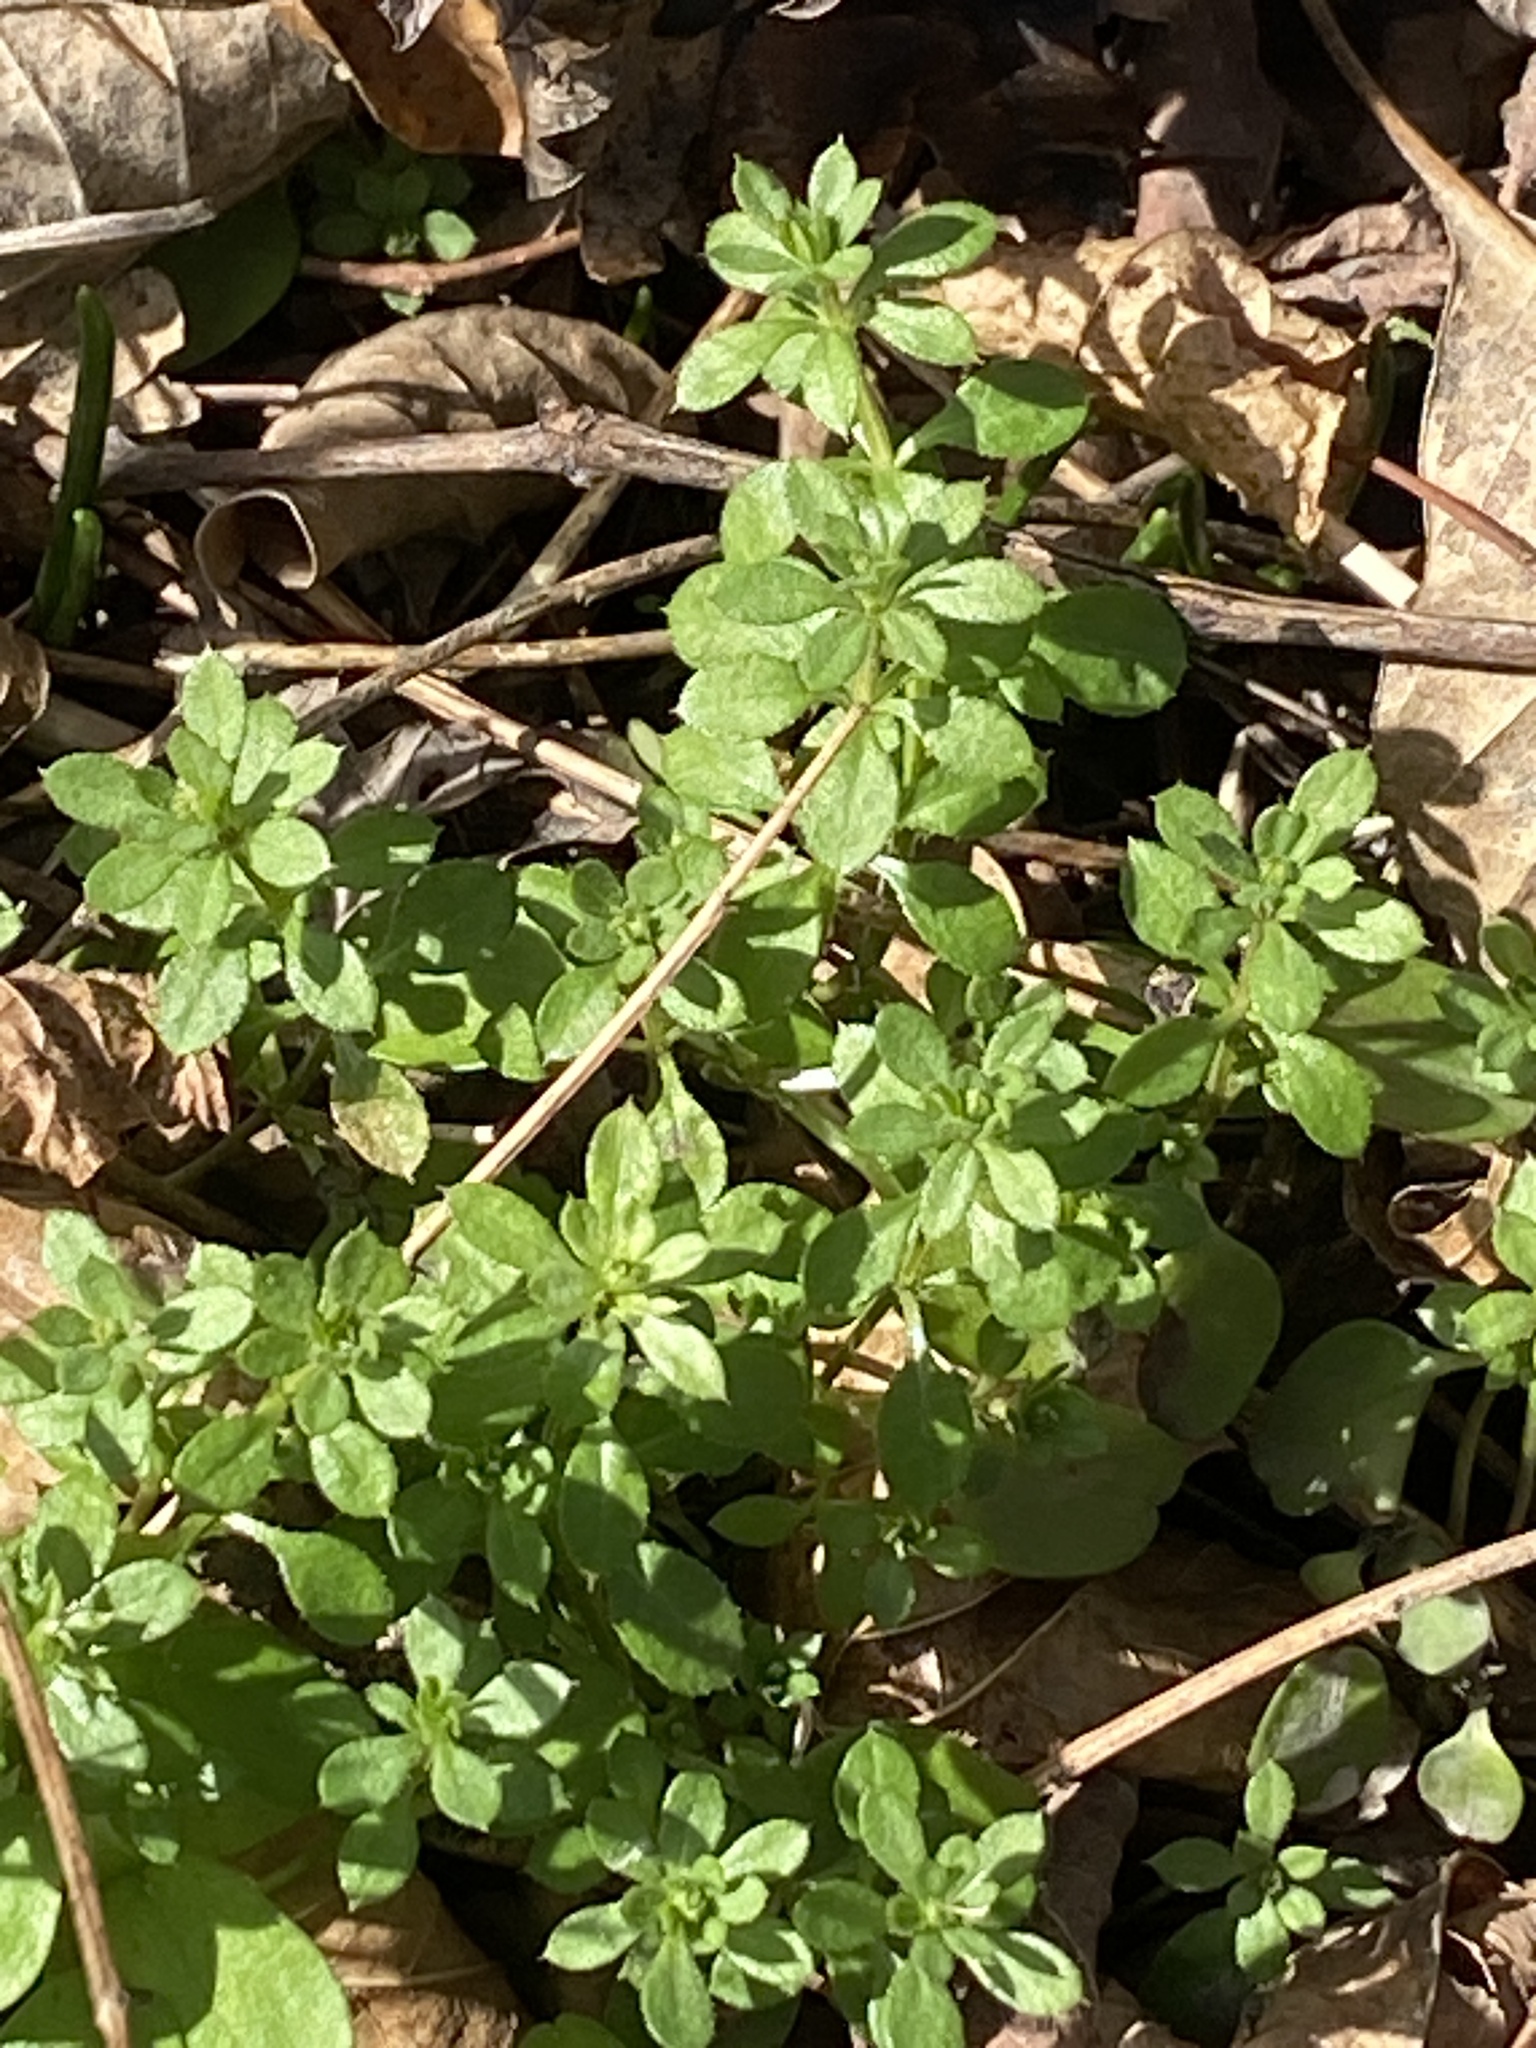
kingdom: Plantae
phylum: Tracheophyta
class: Magnoliopsida
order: Gentianales
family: Rubiaceae
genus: Galium
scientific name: Galium aparine
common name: Cleavers
